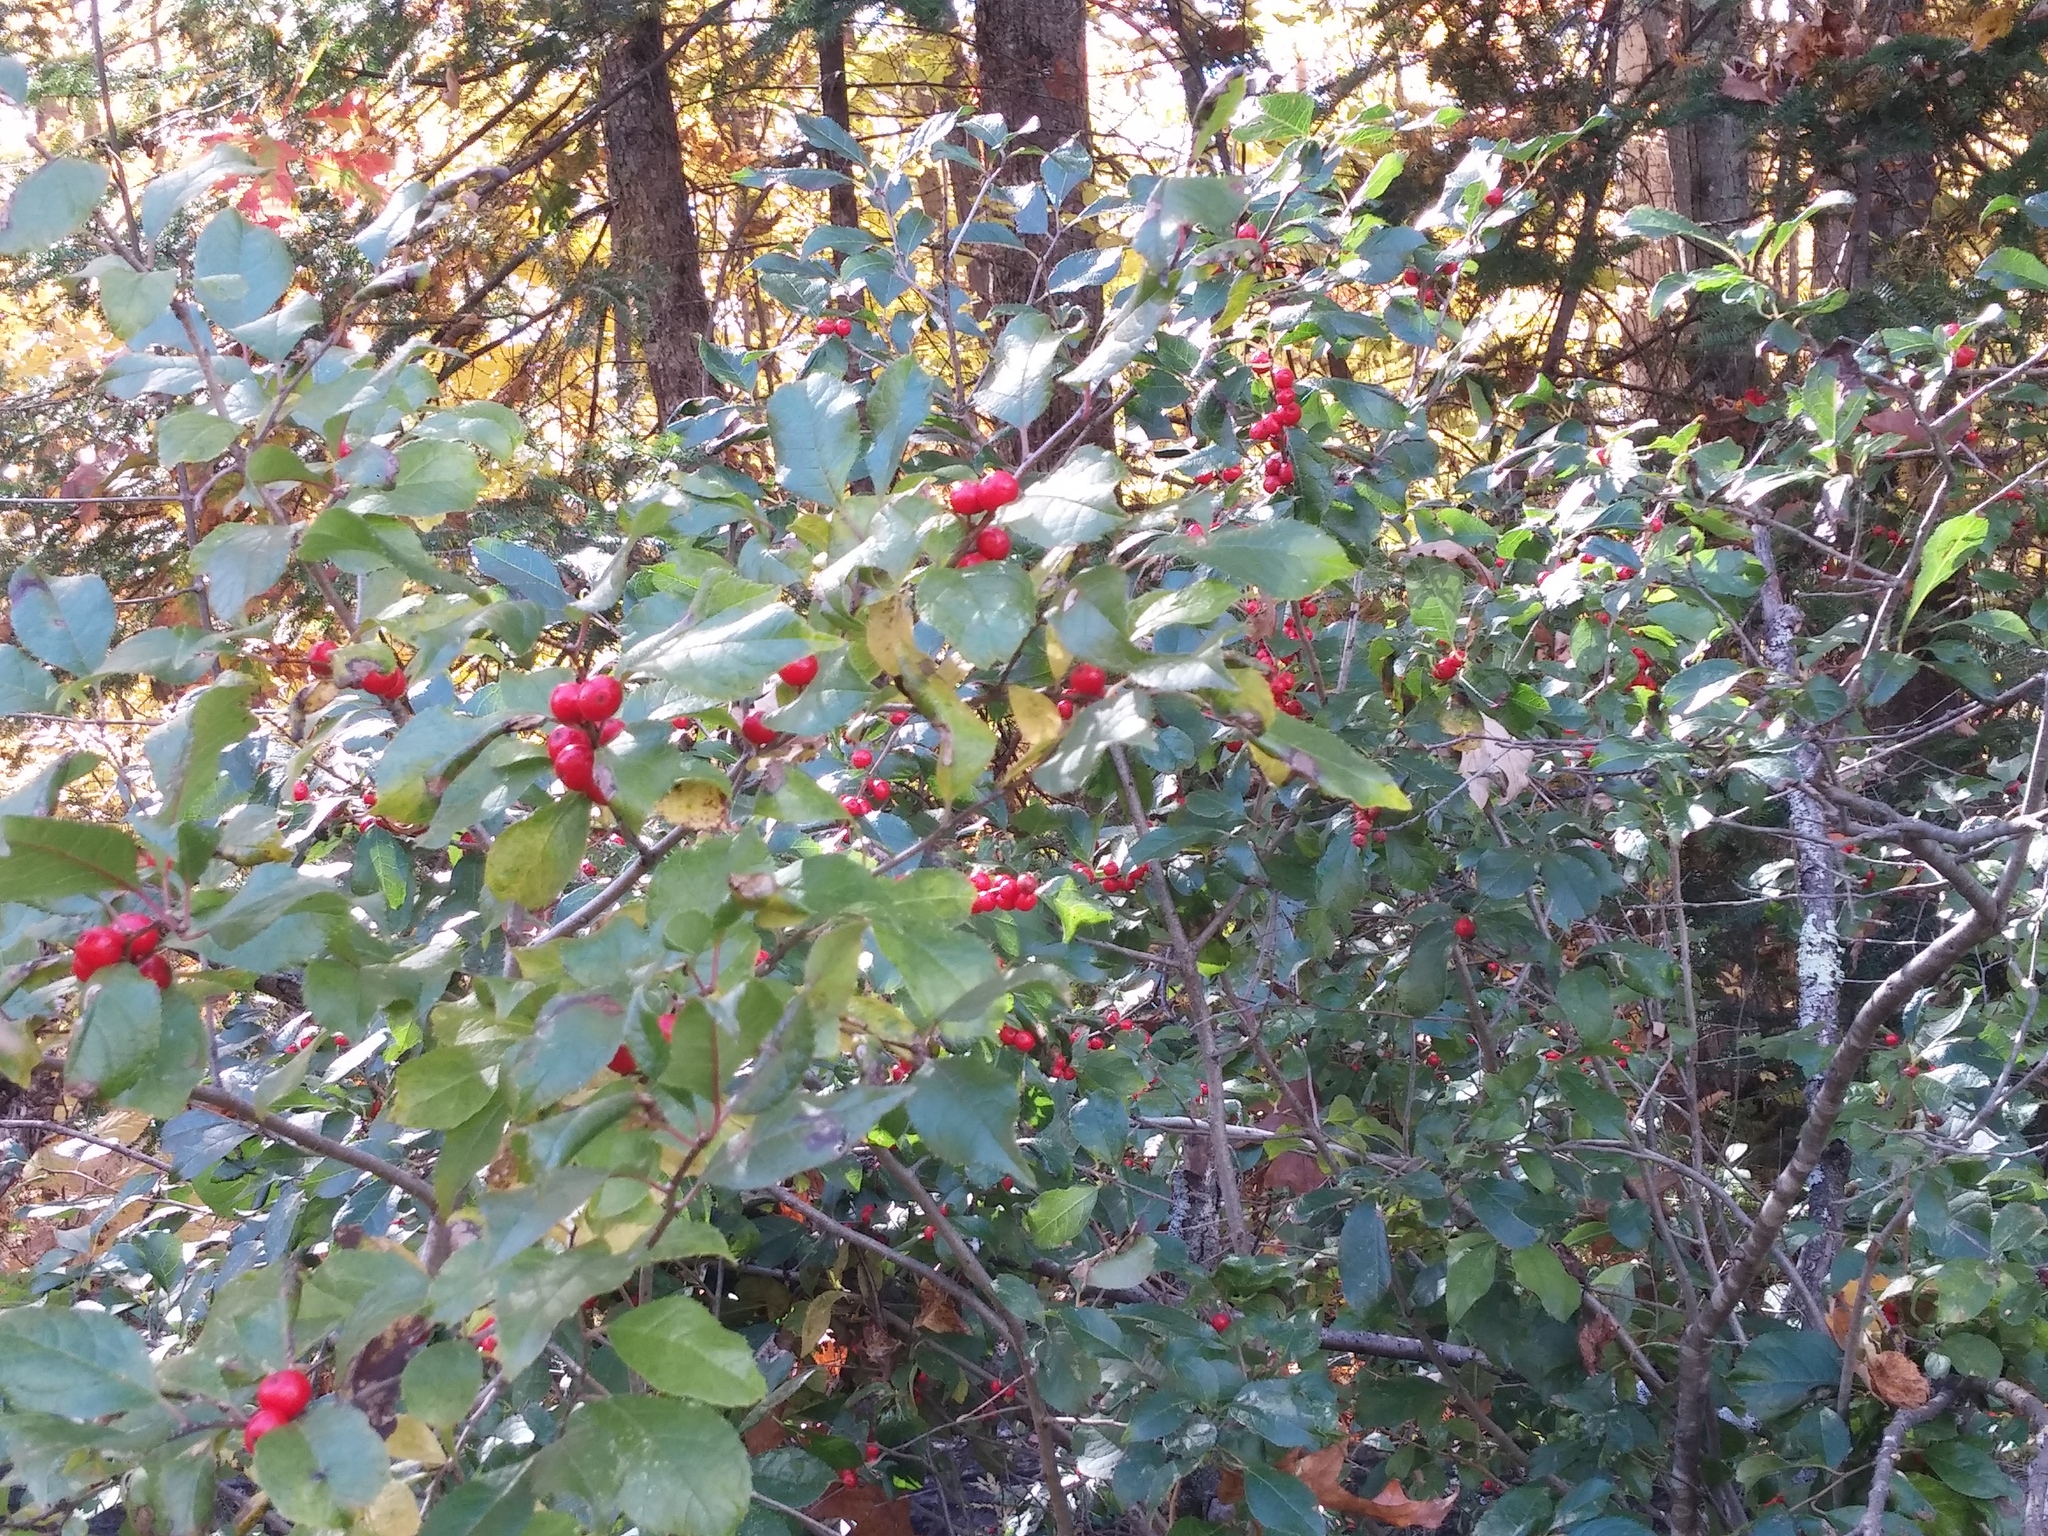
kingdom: Plantae
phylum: Tracheophyta
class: Magnoliopsida
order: Aquifoliales
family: Aquifoliaceae
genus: Ilex
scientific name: Ilex verticillata
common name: Virginia winterberry
